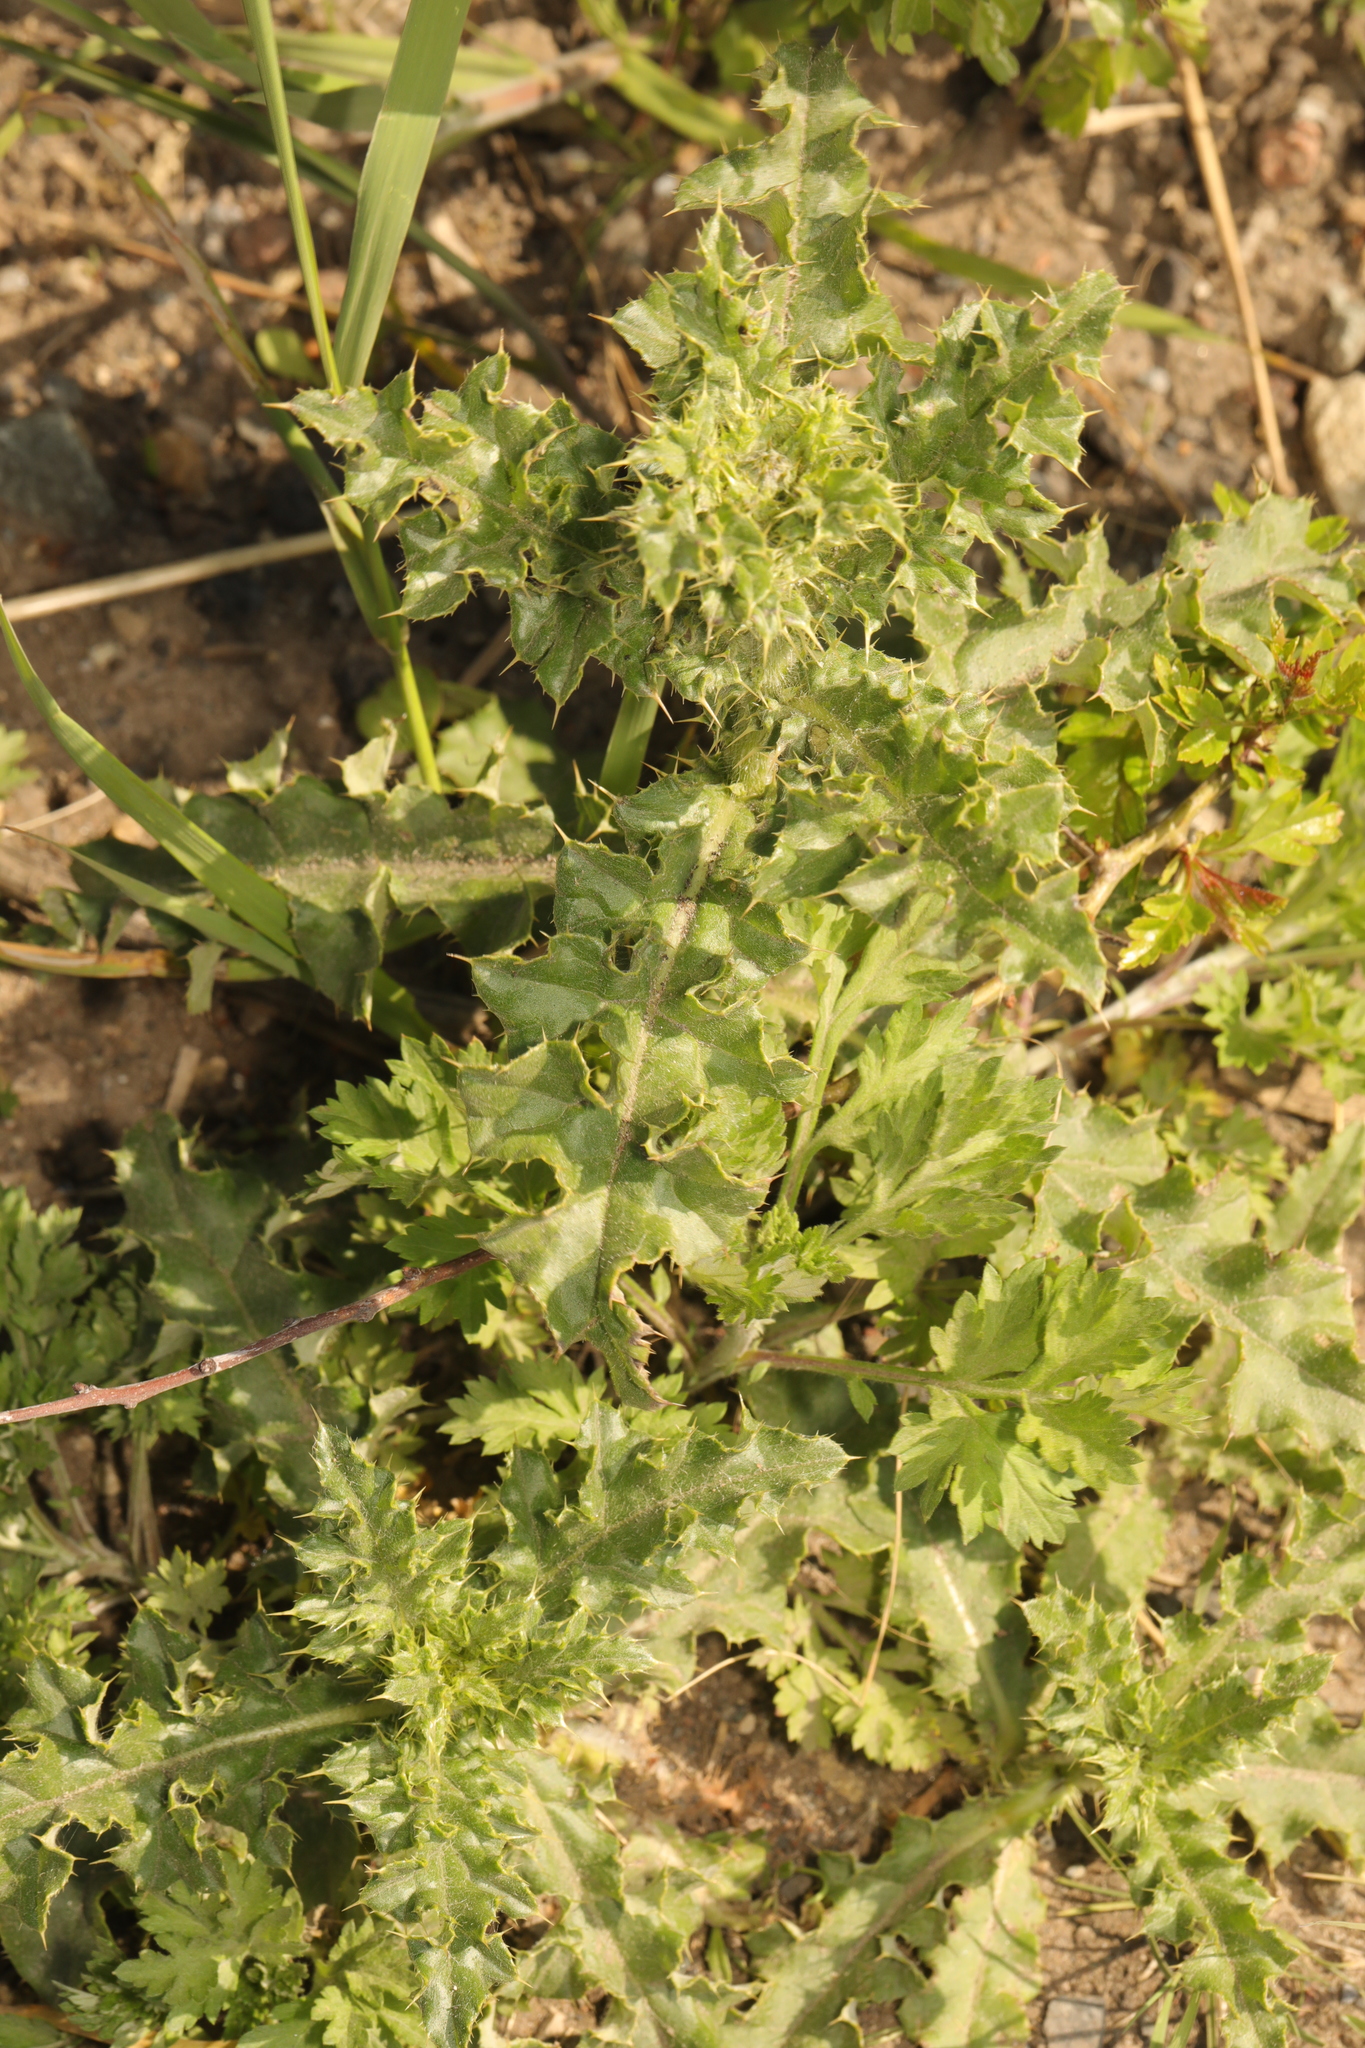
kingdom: Plantae
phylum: Tracheophyta
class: Magnoliopsida
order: Asterales
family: Asteraceae
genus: Cirsium
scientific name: Cirsium arvense
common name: Creeping thistle
